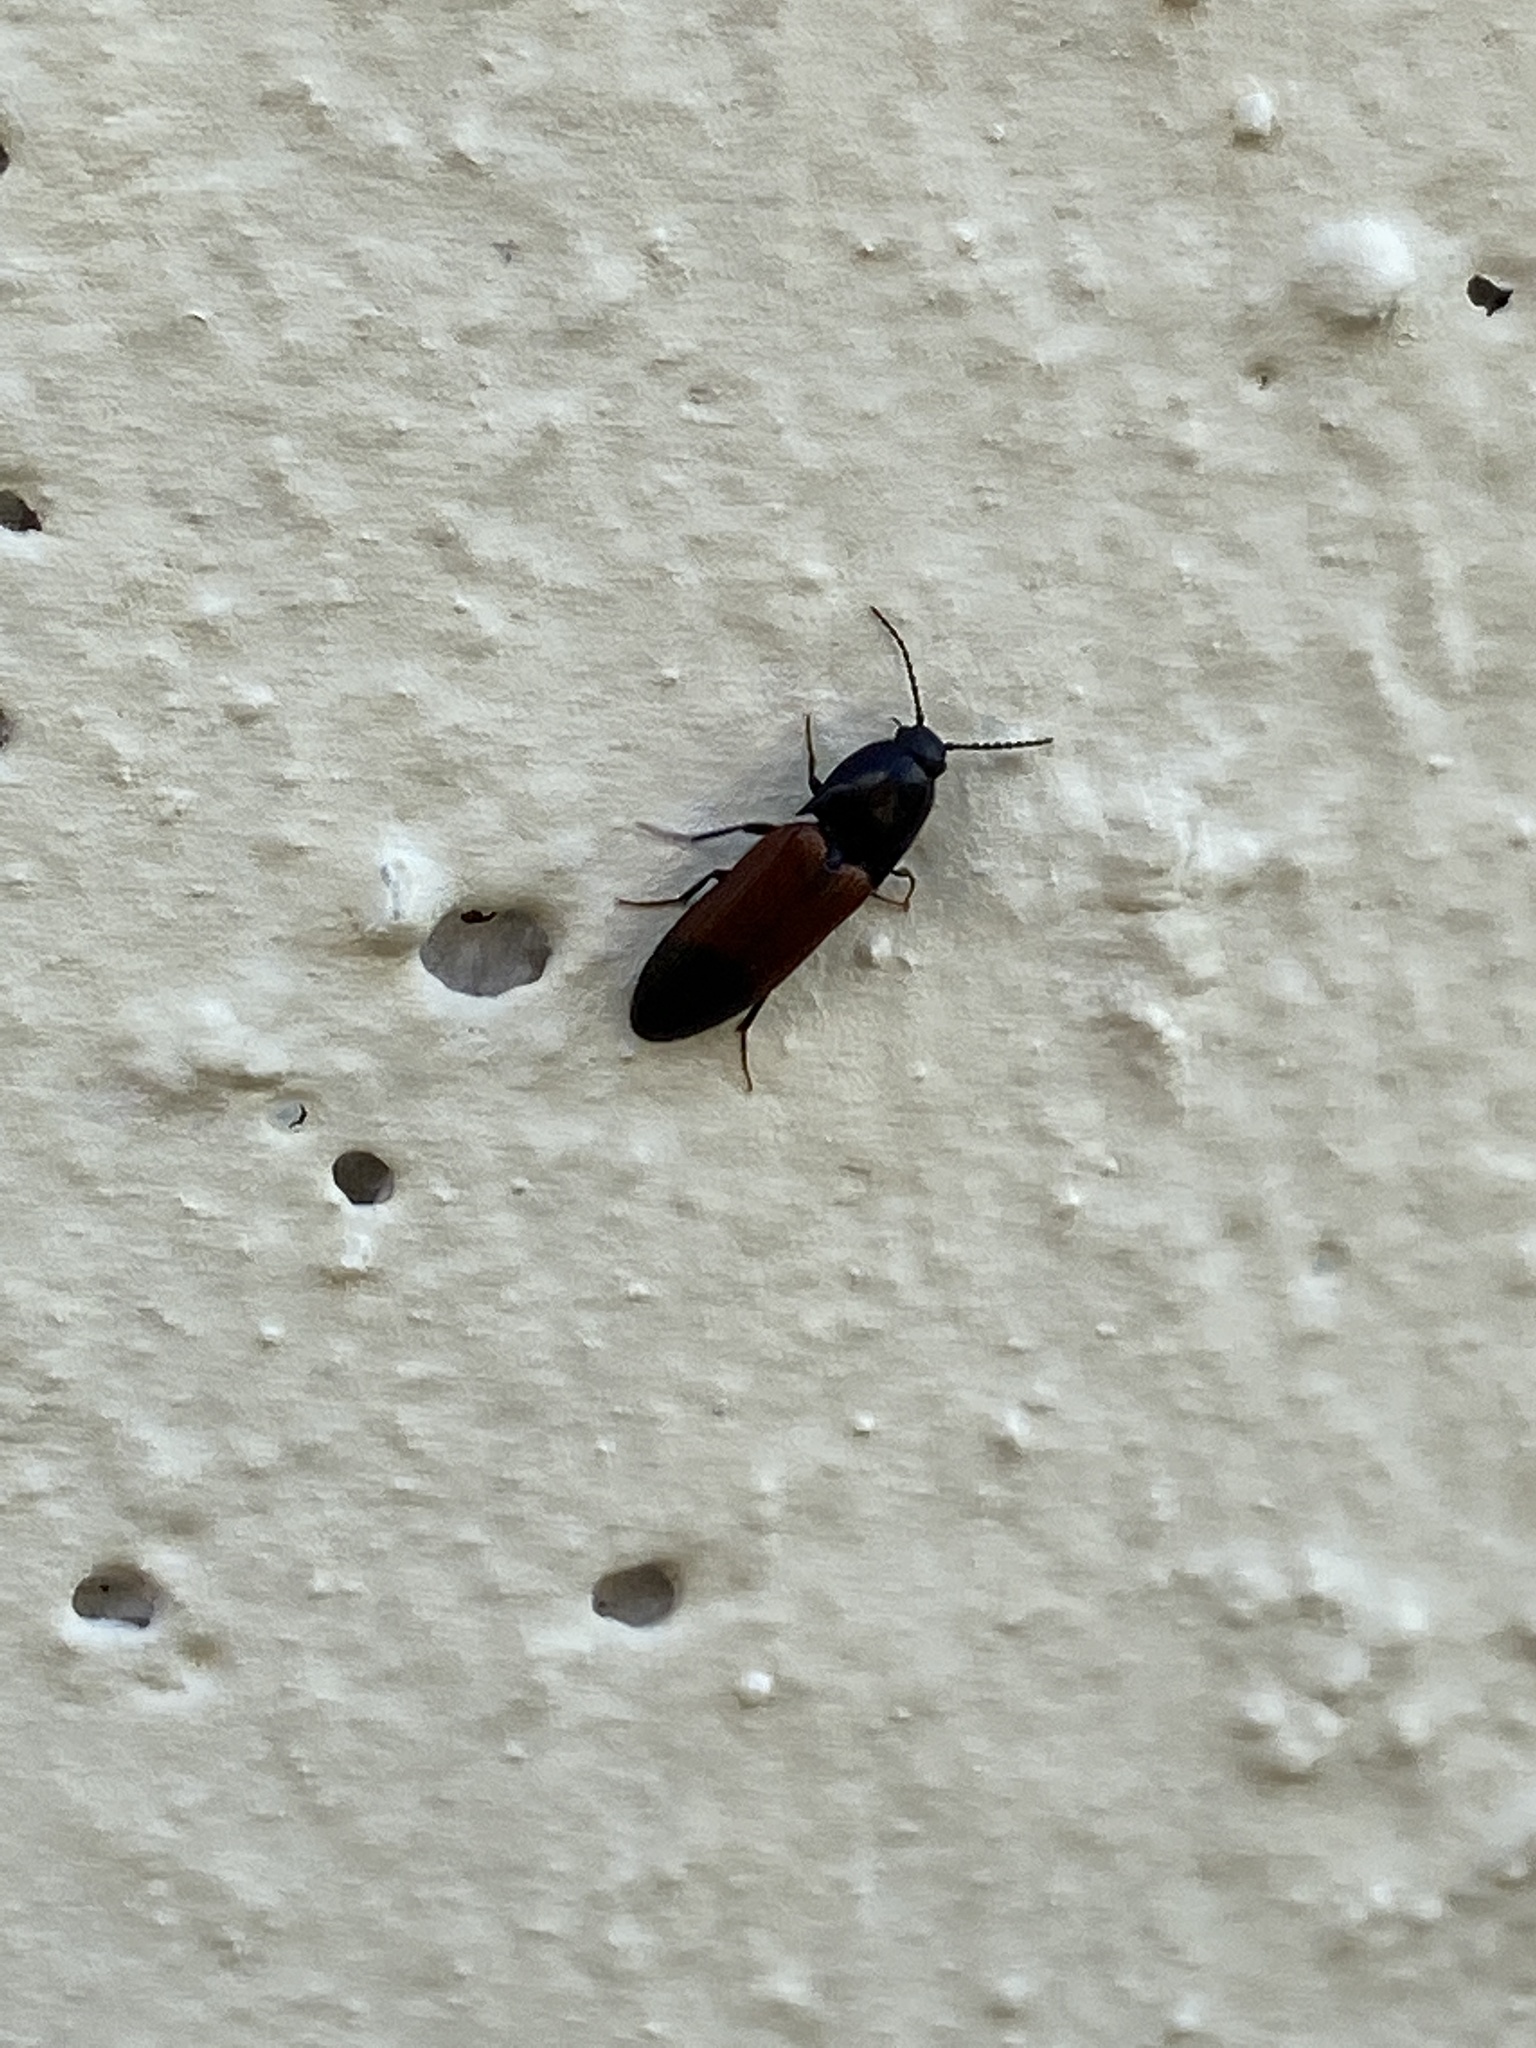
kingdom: Animalia
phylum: Arthropoda
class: Insecta
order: Coleoptera
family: Elateridae
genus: Ampedus
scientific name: Ampedus balteatus
